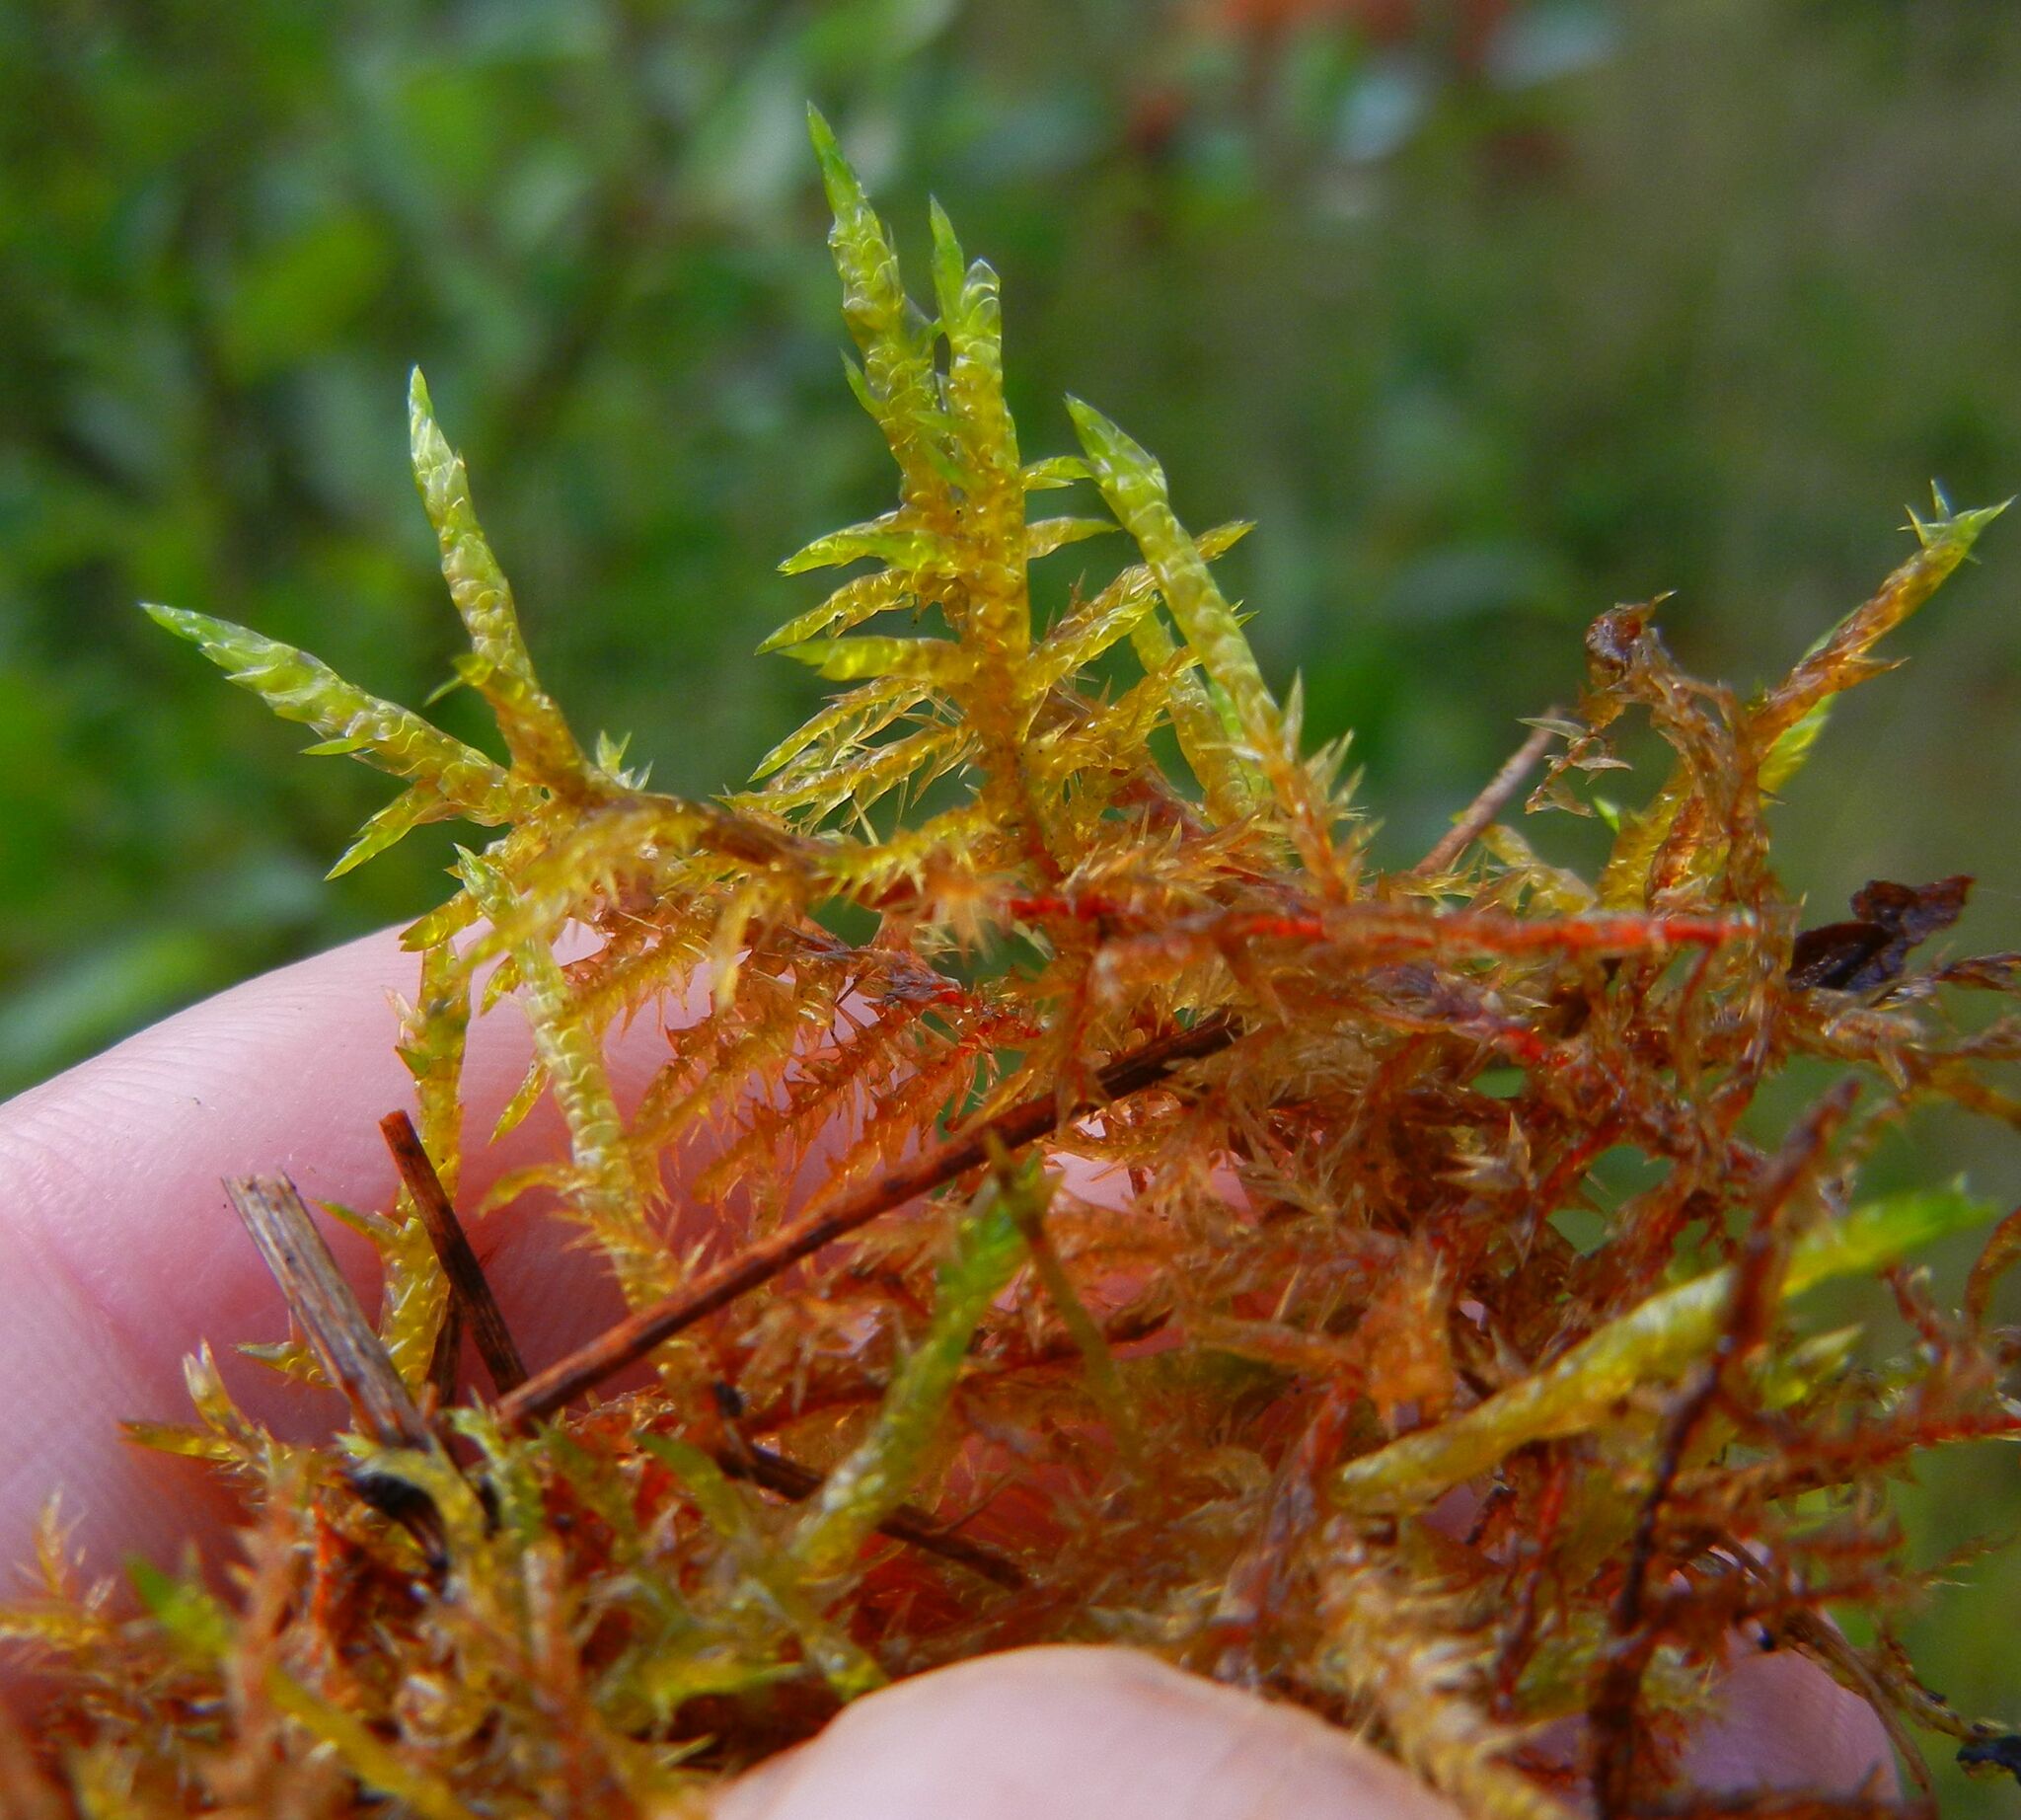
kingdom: Plantae
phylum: Bryophyta
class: Bryopsida
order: Hypnales
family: Pylaisiaceae
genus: Calliergonella
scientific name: Calliergonella cuspidata
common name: Common large wetland moss
